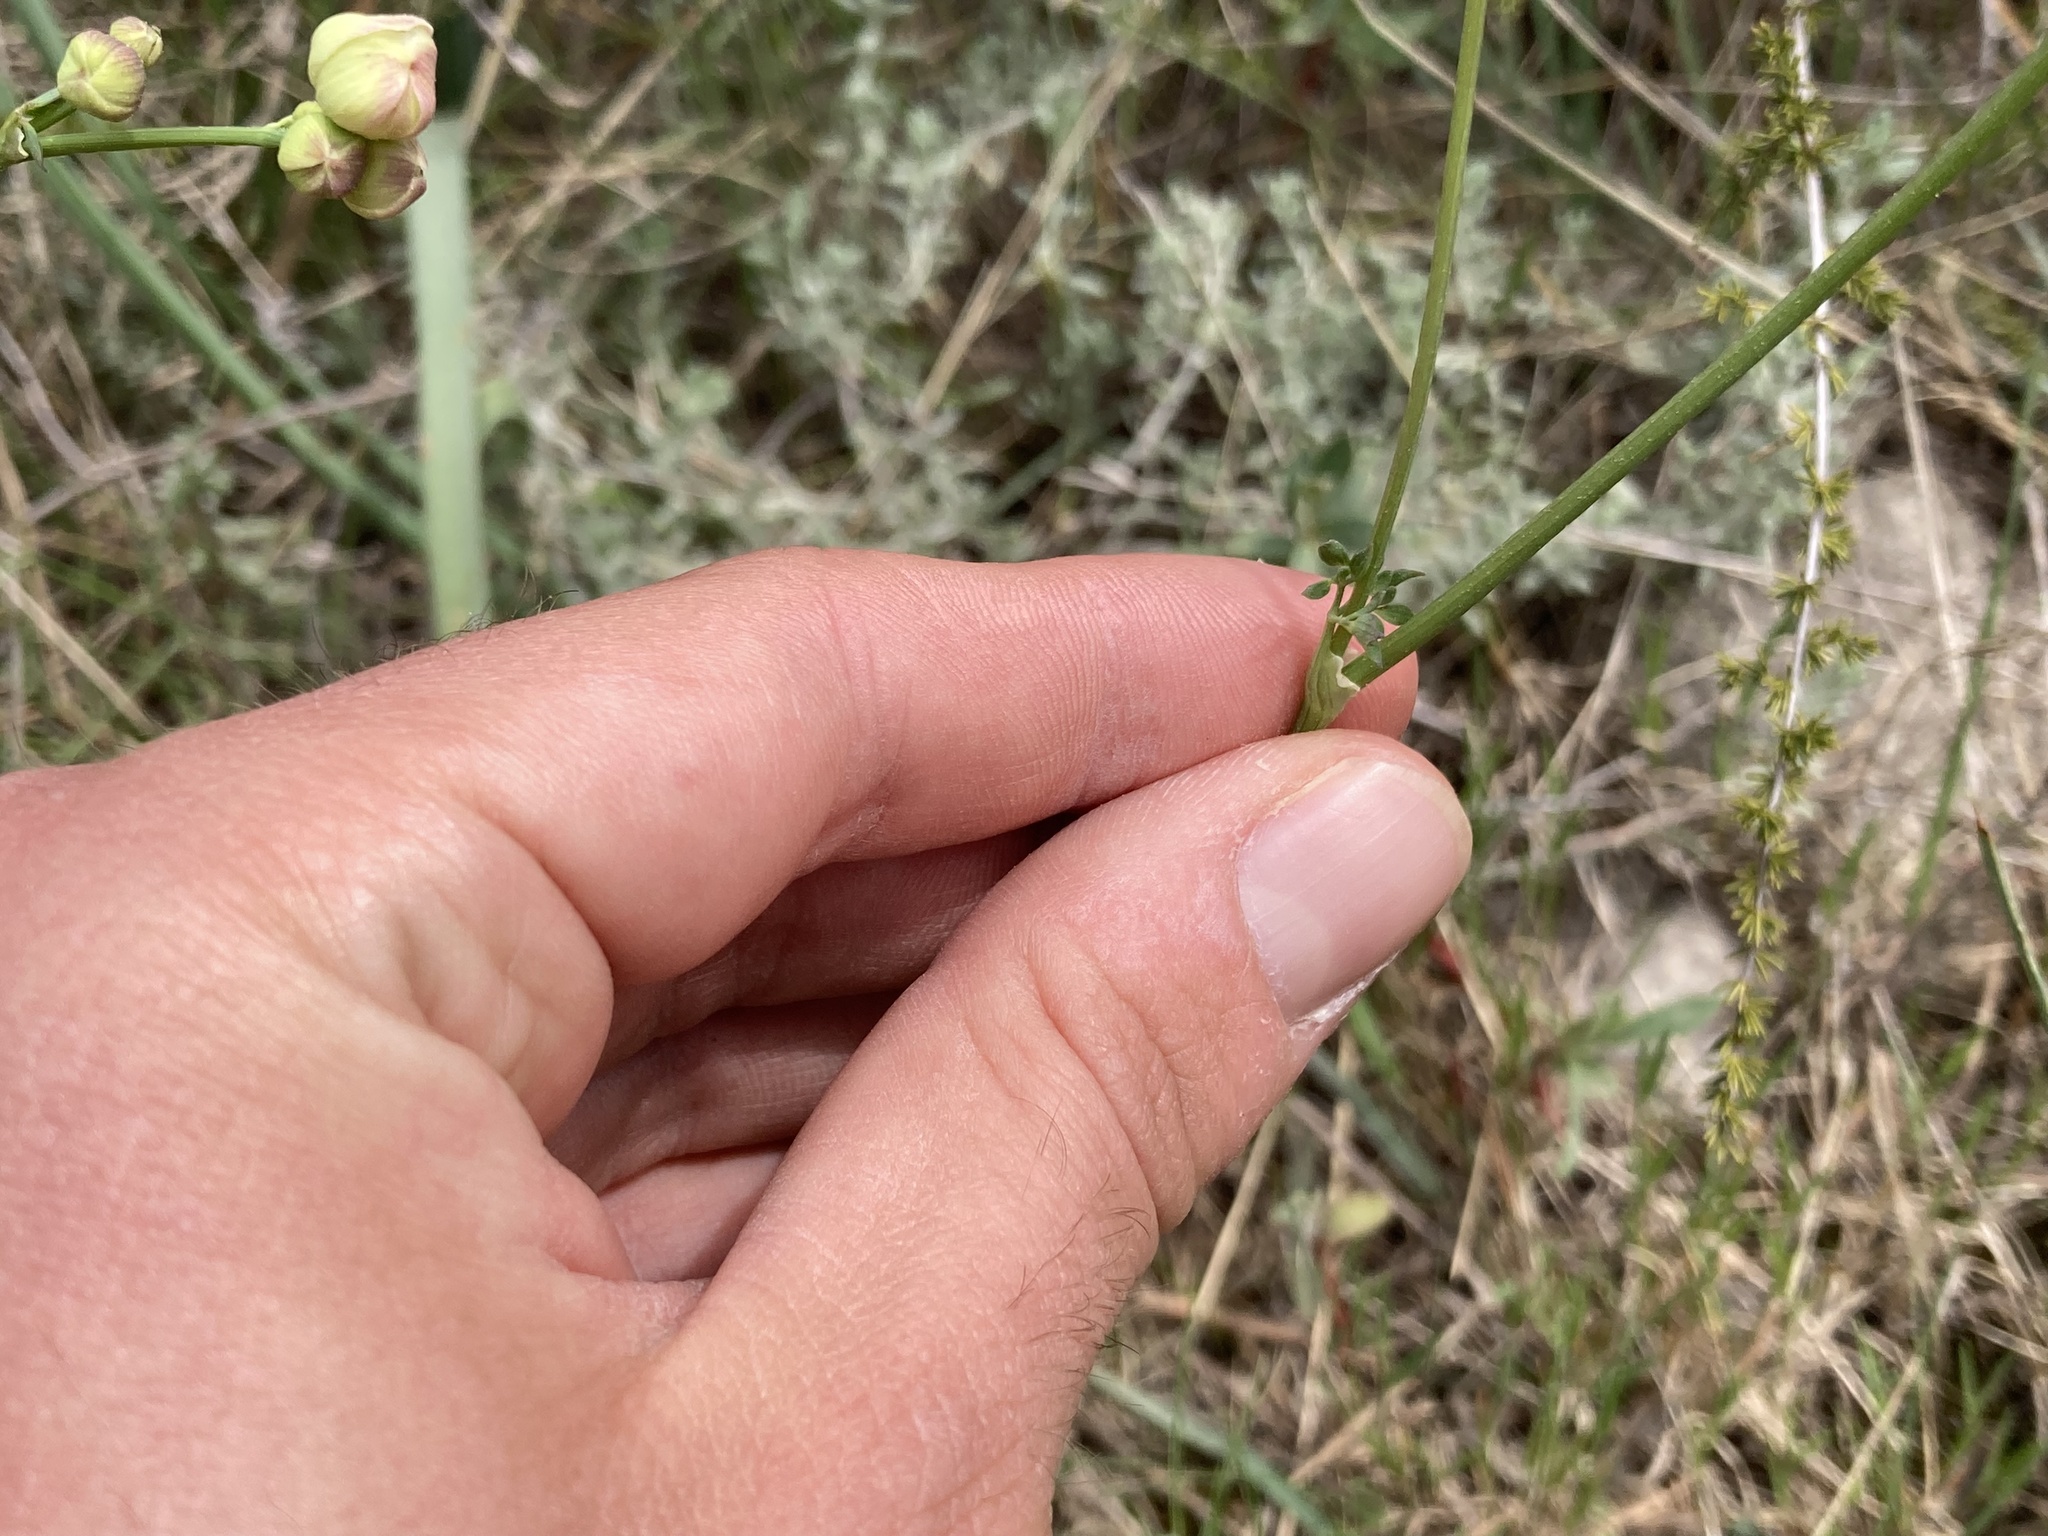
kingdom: Plantae
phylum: Tracheophyta
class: Magnoliopsida
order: Ranunculales
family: Ranunculaceae
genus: Thalictrum
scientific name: Thalictrum tuberosum
